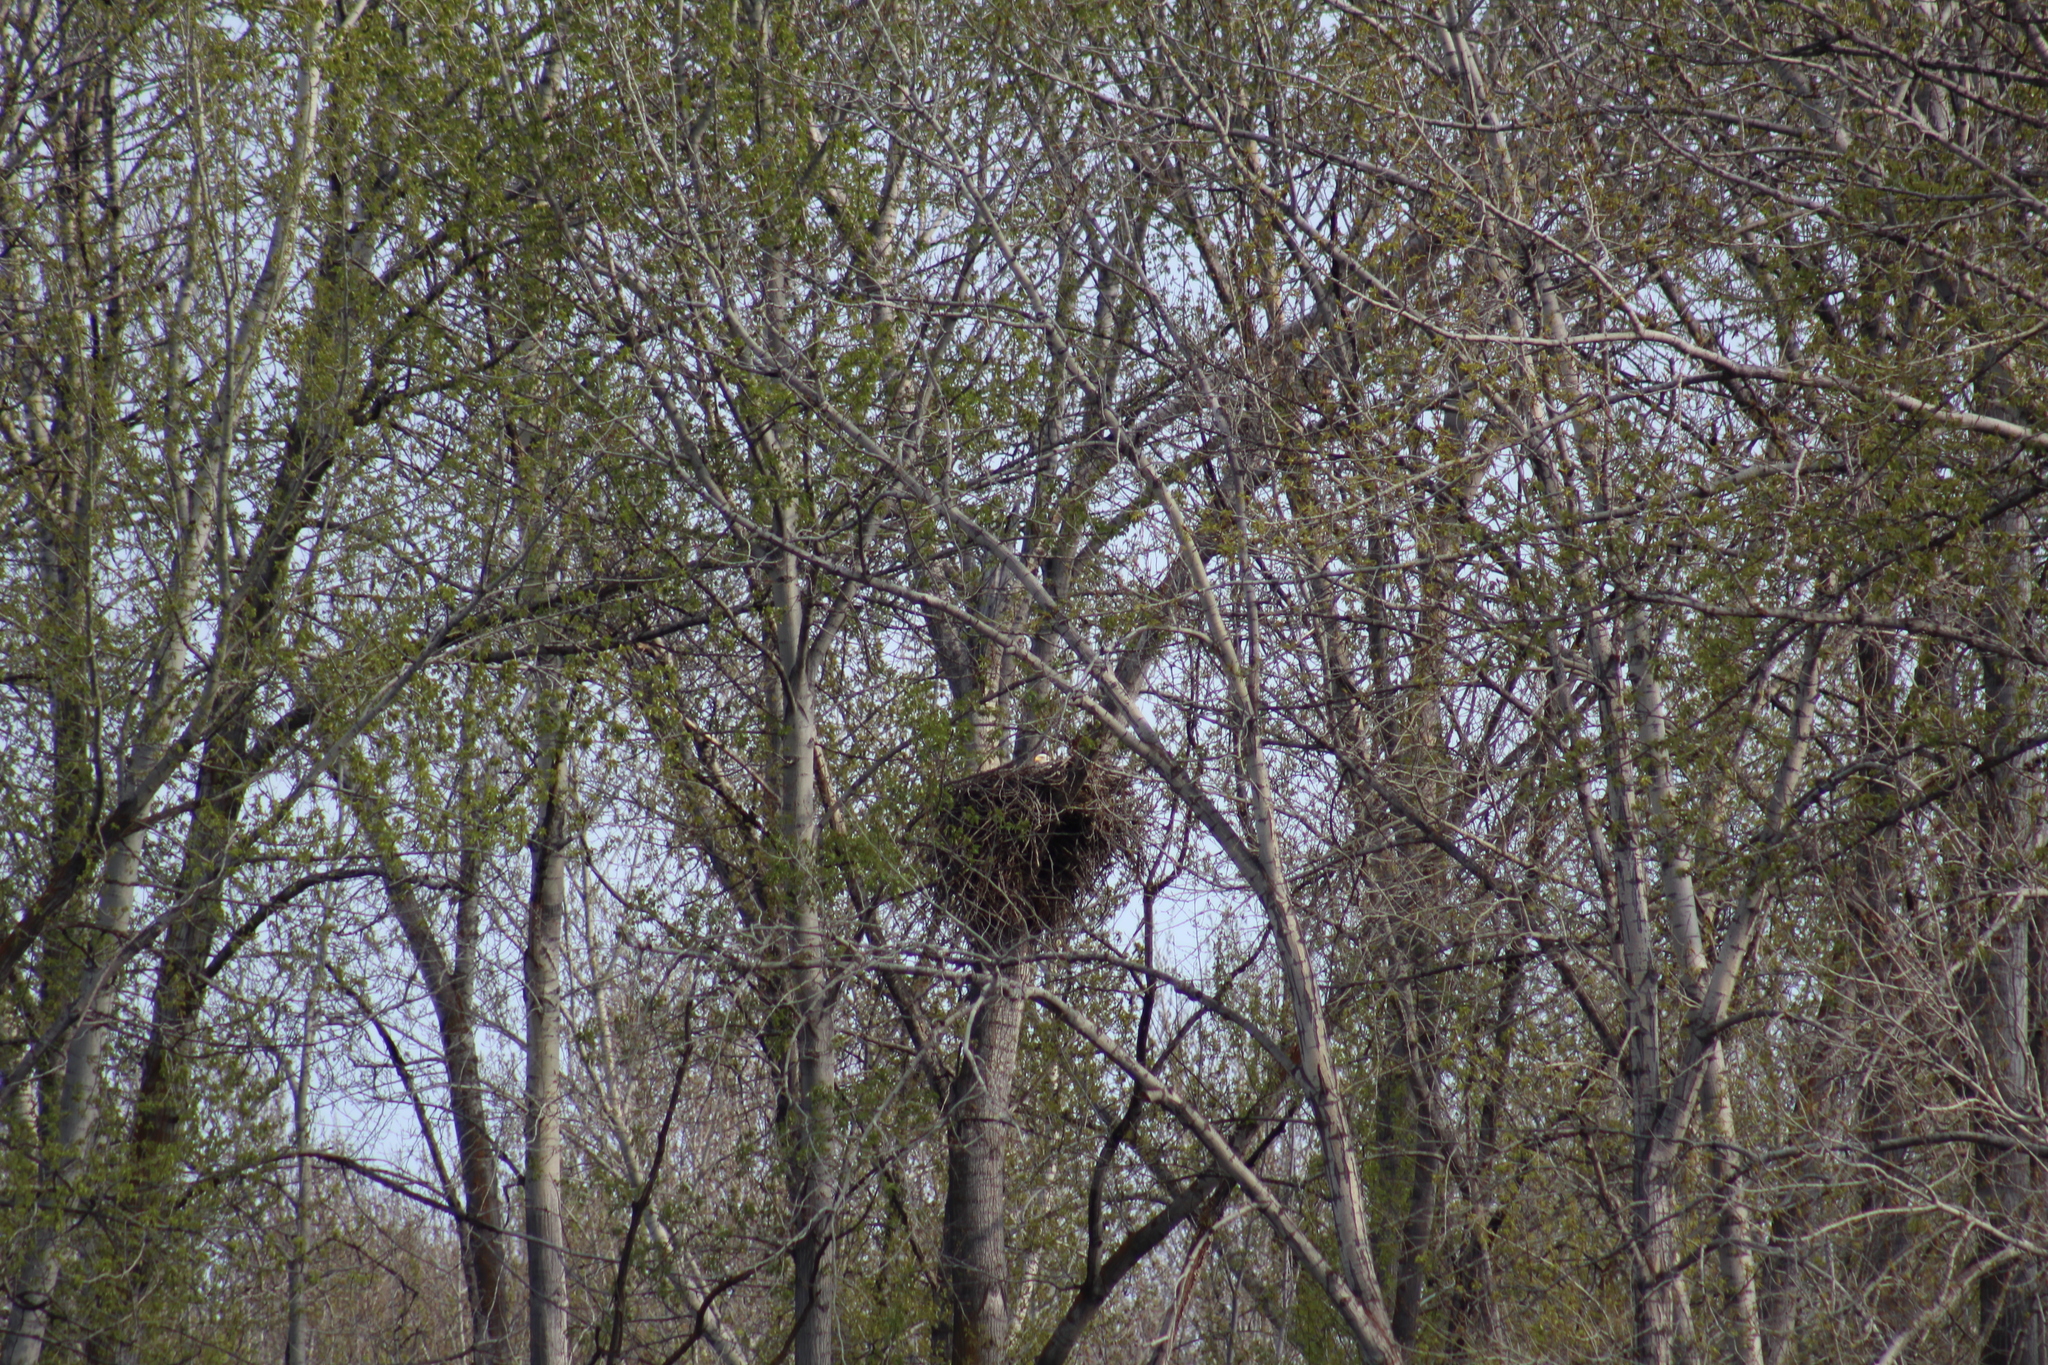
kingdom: Animalia
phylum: Chordata
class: Aves
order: Accipitriformes
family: Accipitridae
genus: Haliaeetus
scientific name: Haliaeetus leucocephalus
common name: Bald eagle
